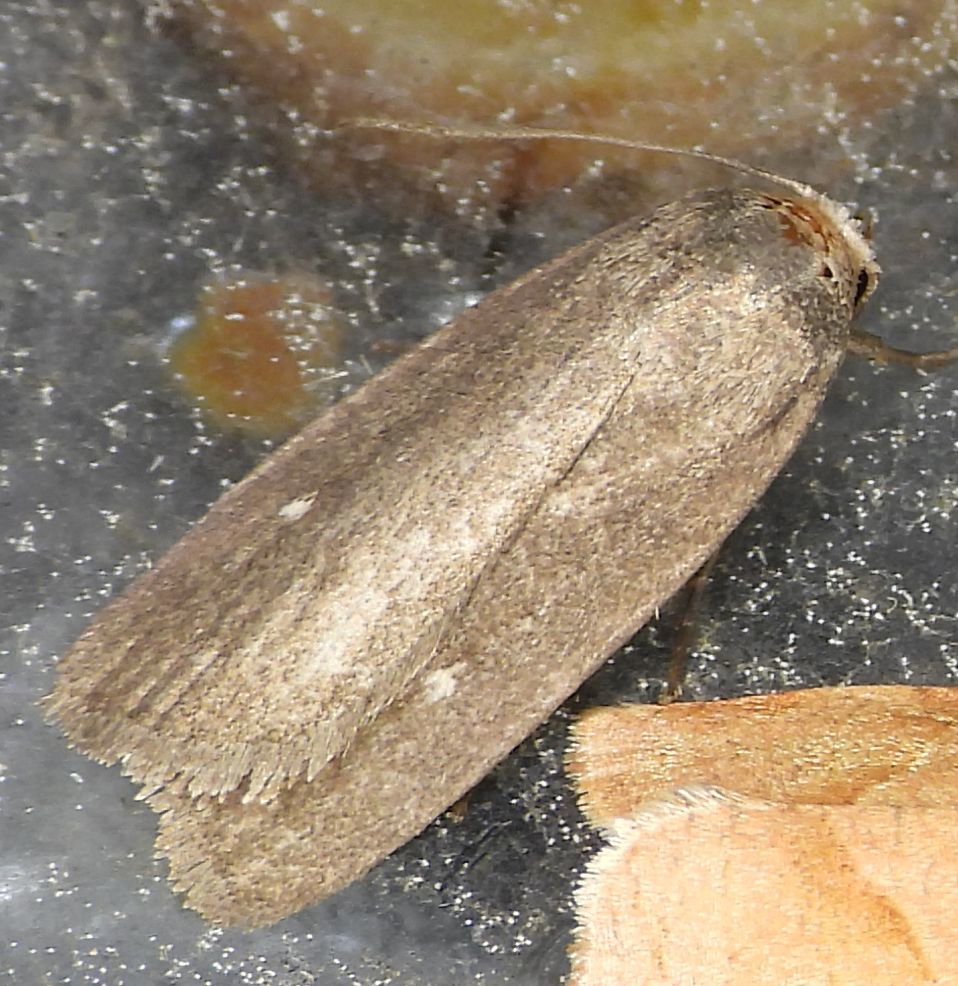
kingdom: Animalia
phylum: Arthropoda
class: Insecta
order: Lepidoptera
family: Noctuidae
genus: Proxenus
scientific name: Proxenus miranda
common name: Miranda moth
